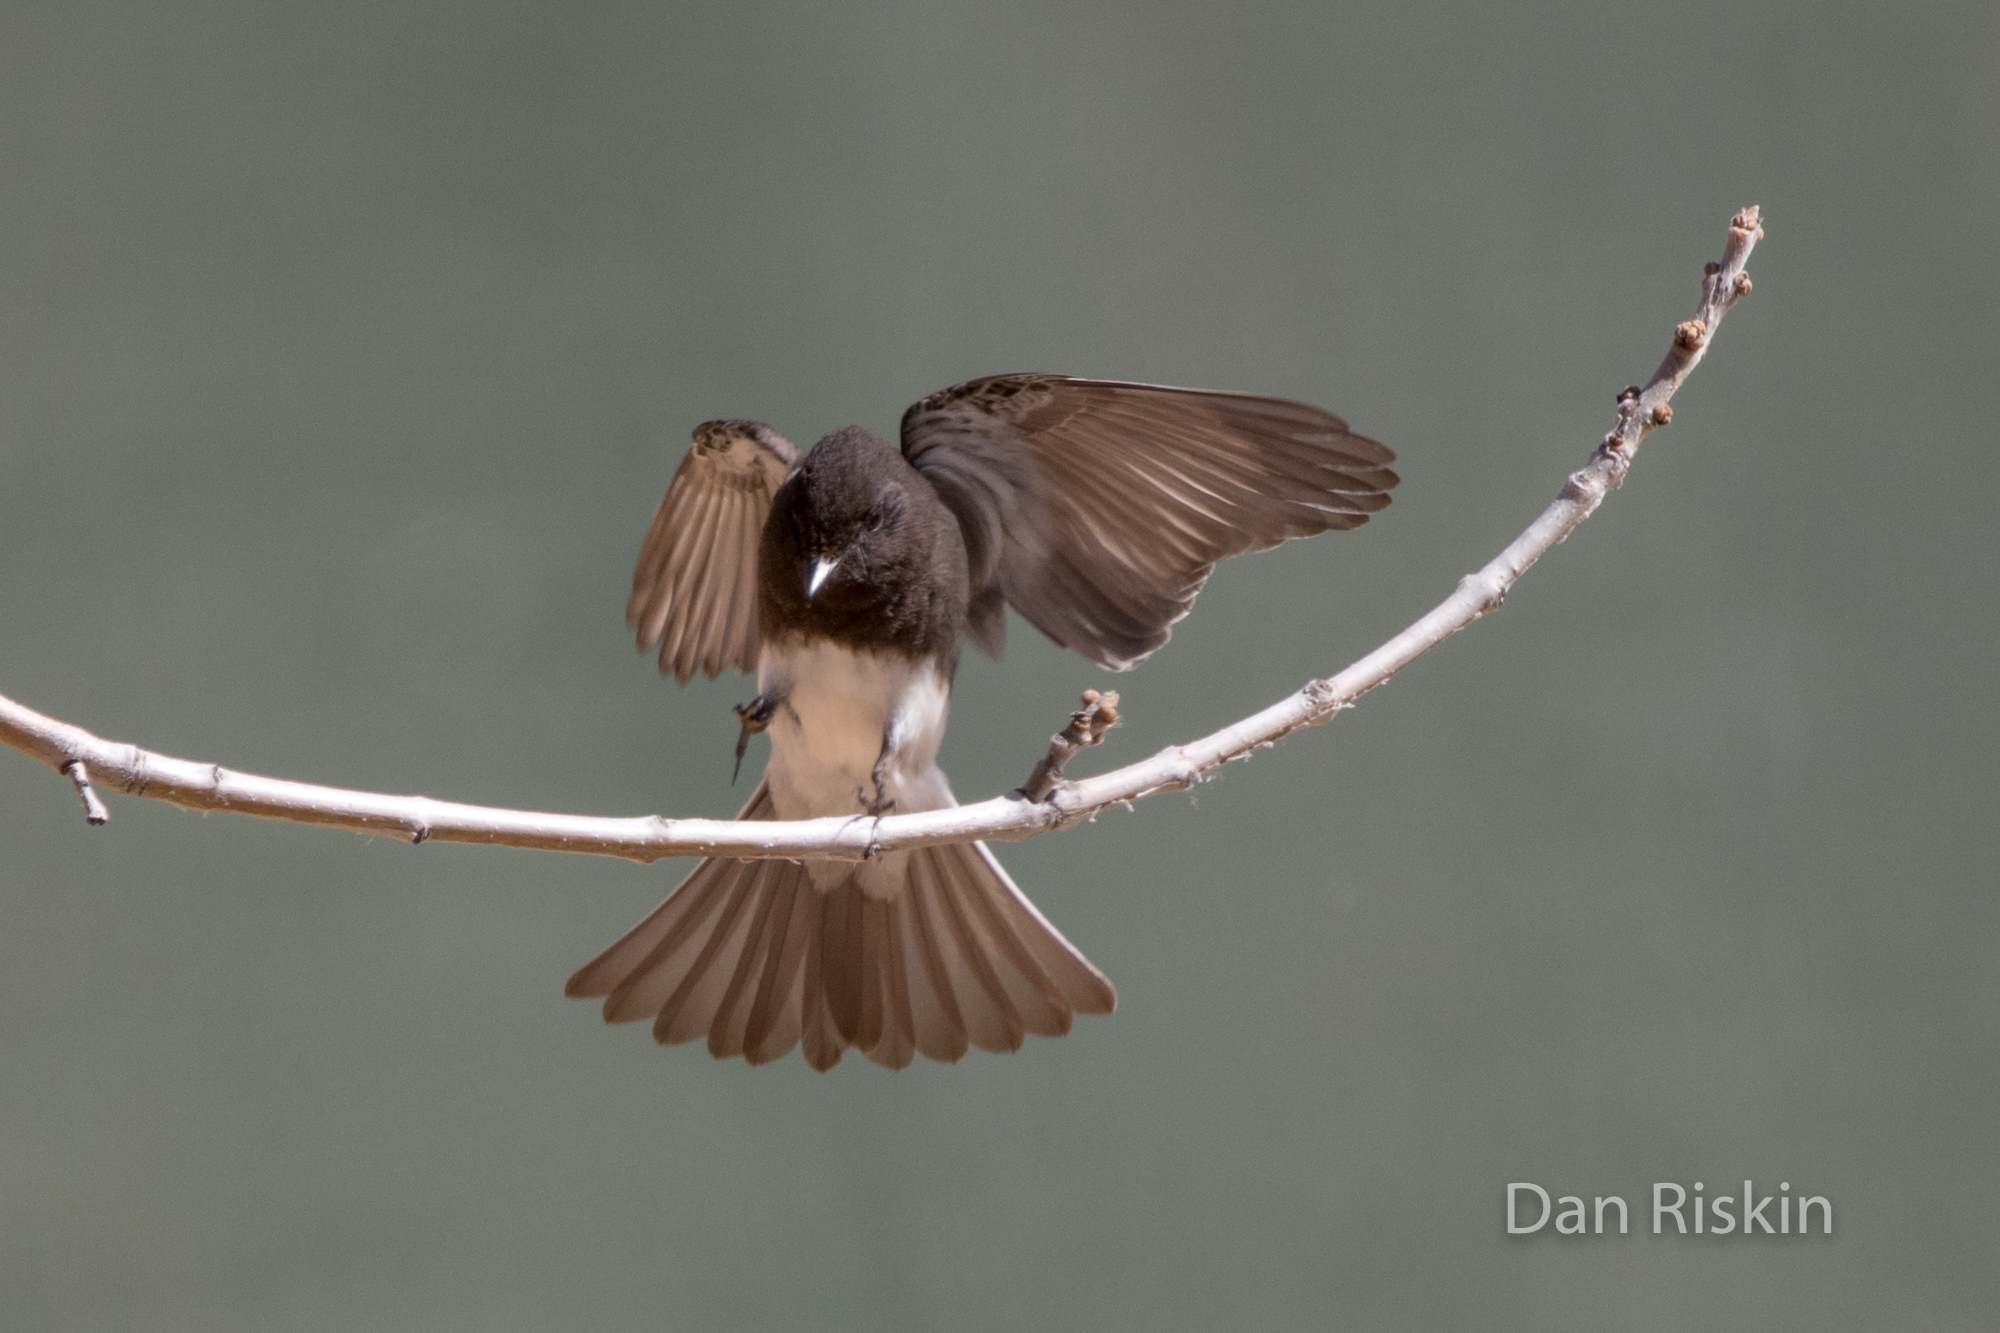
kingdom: Animalia
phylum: Chordata
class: Aves
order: Passeriformes
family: Tyrannidae
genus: Sayornis
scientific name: Sayornis nigricans
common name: Black phoebe
